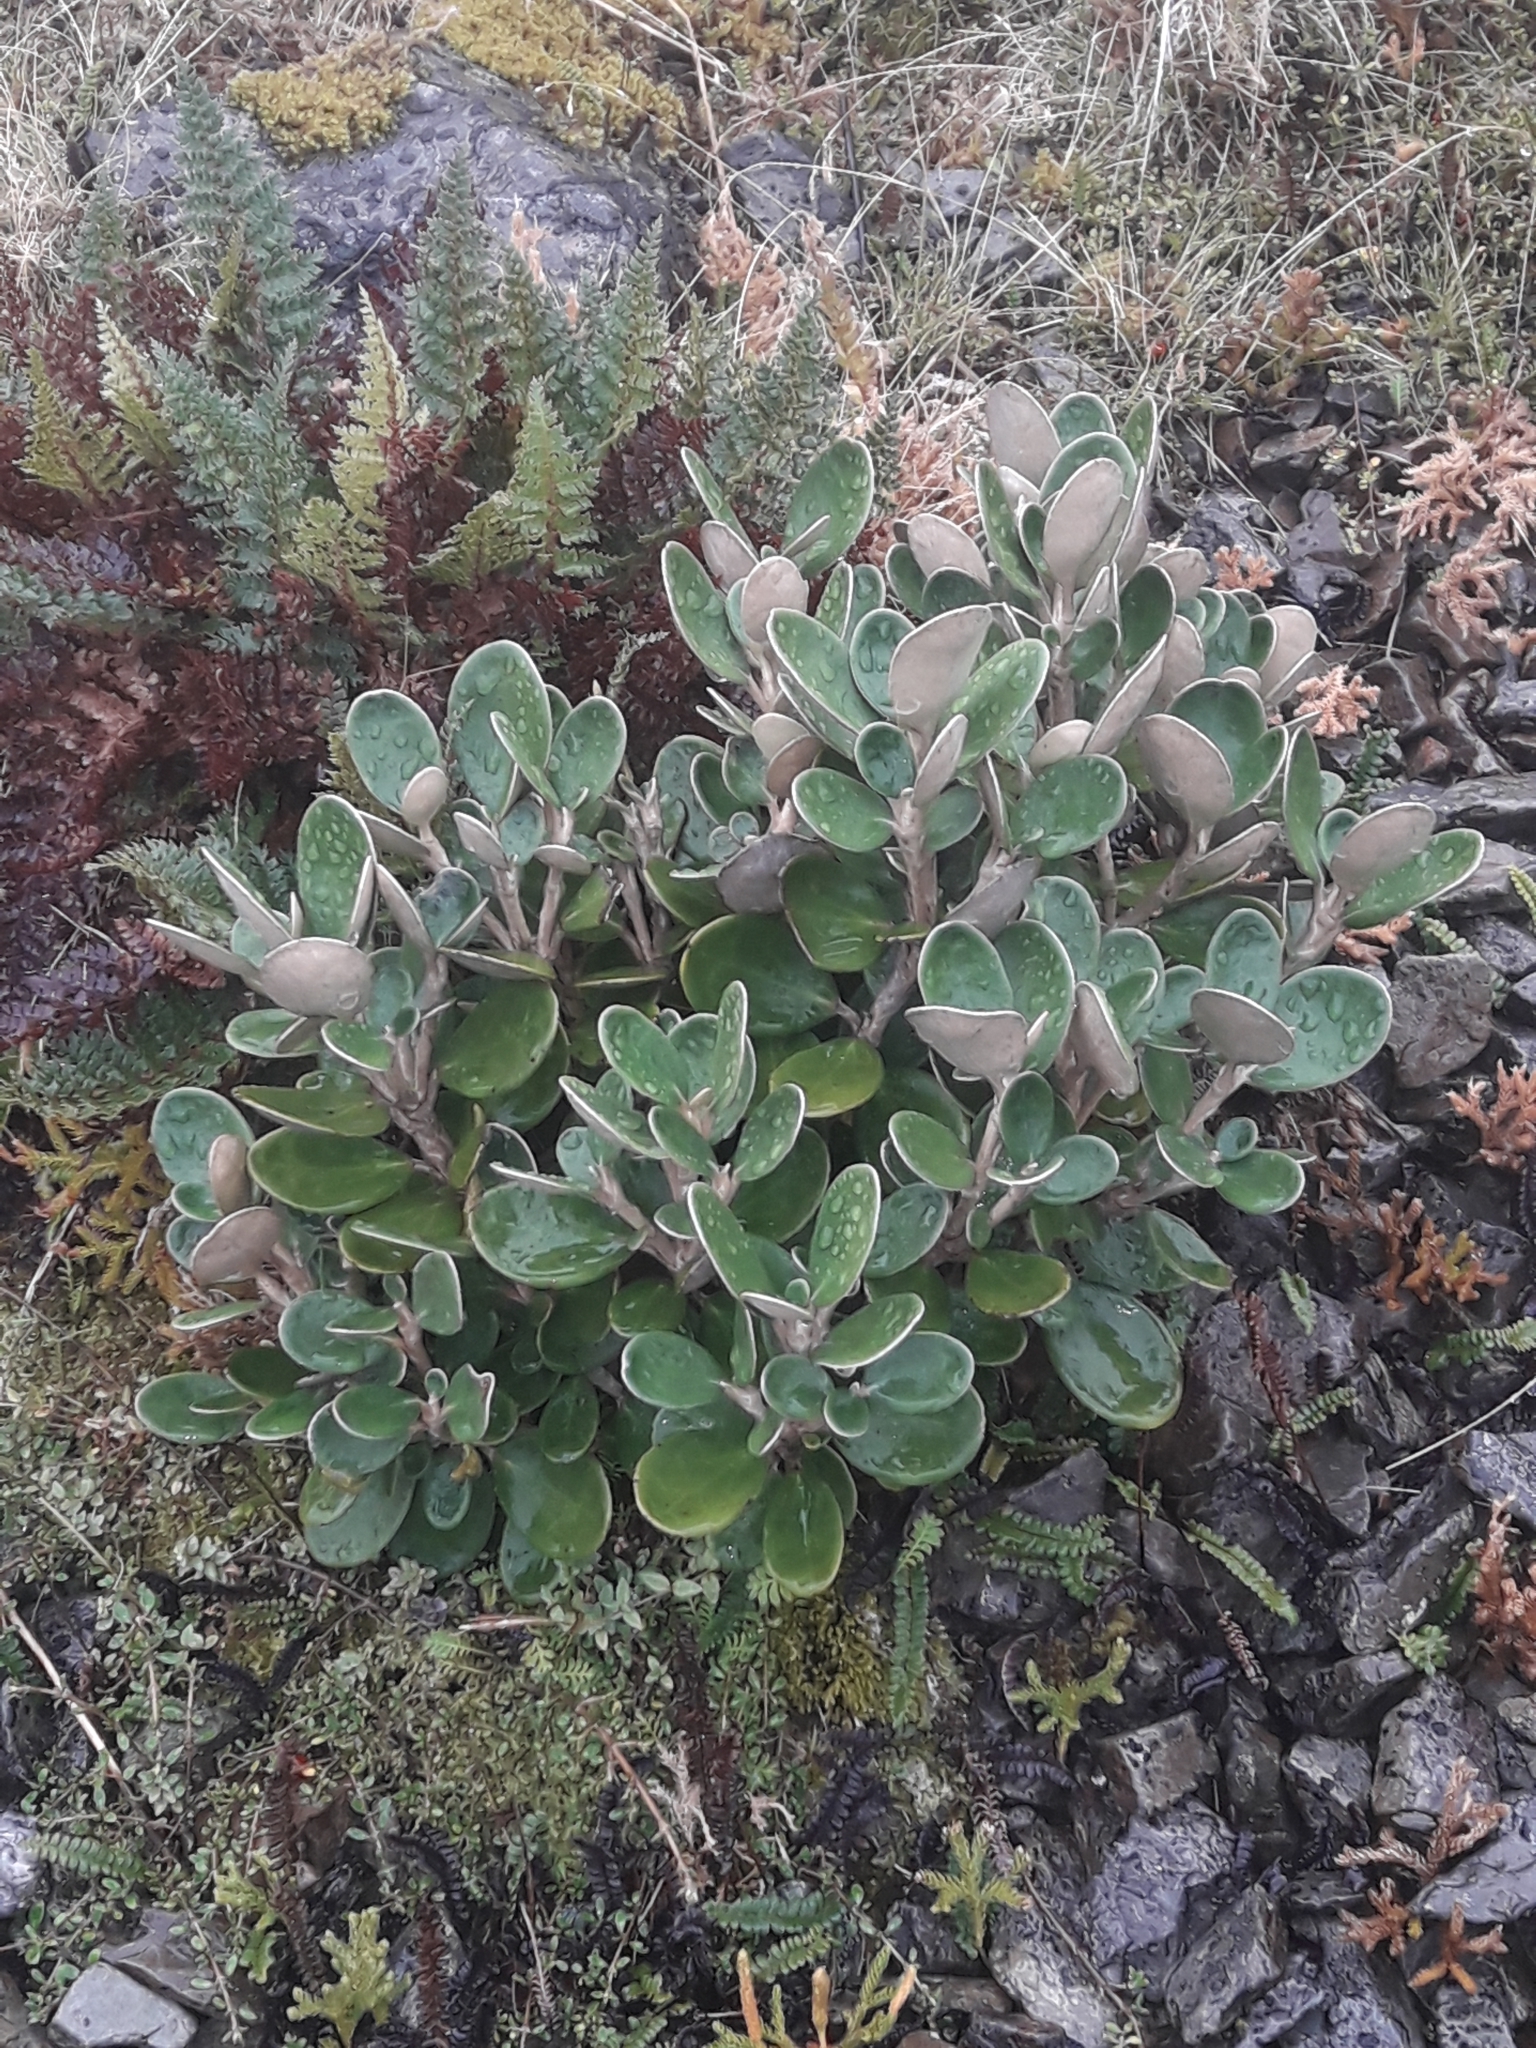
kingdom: Plantae
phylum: Tracheophyta
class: Magnoliopsida
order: Asterales
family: Asteraceae
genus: Brachyglottis
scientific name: Brachyglottis bidwillii
